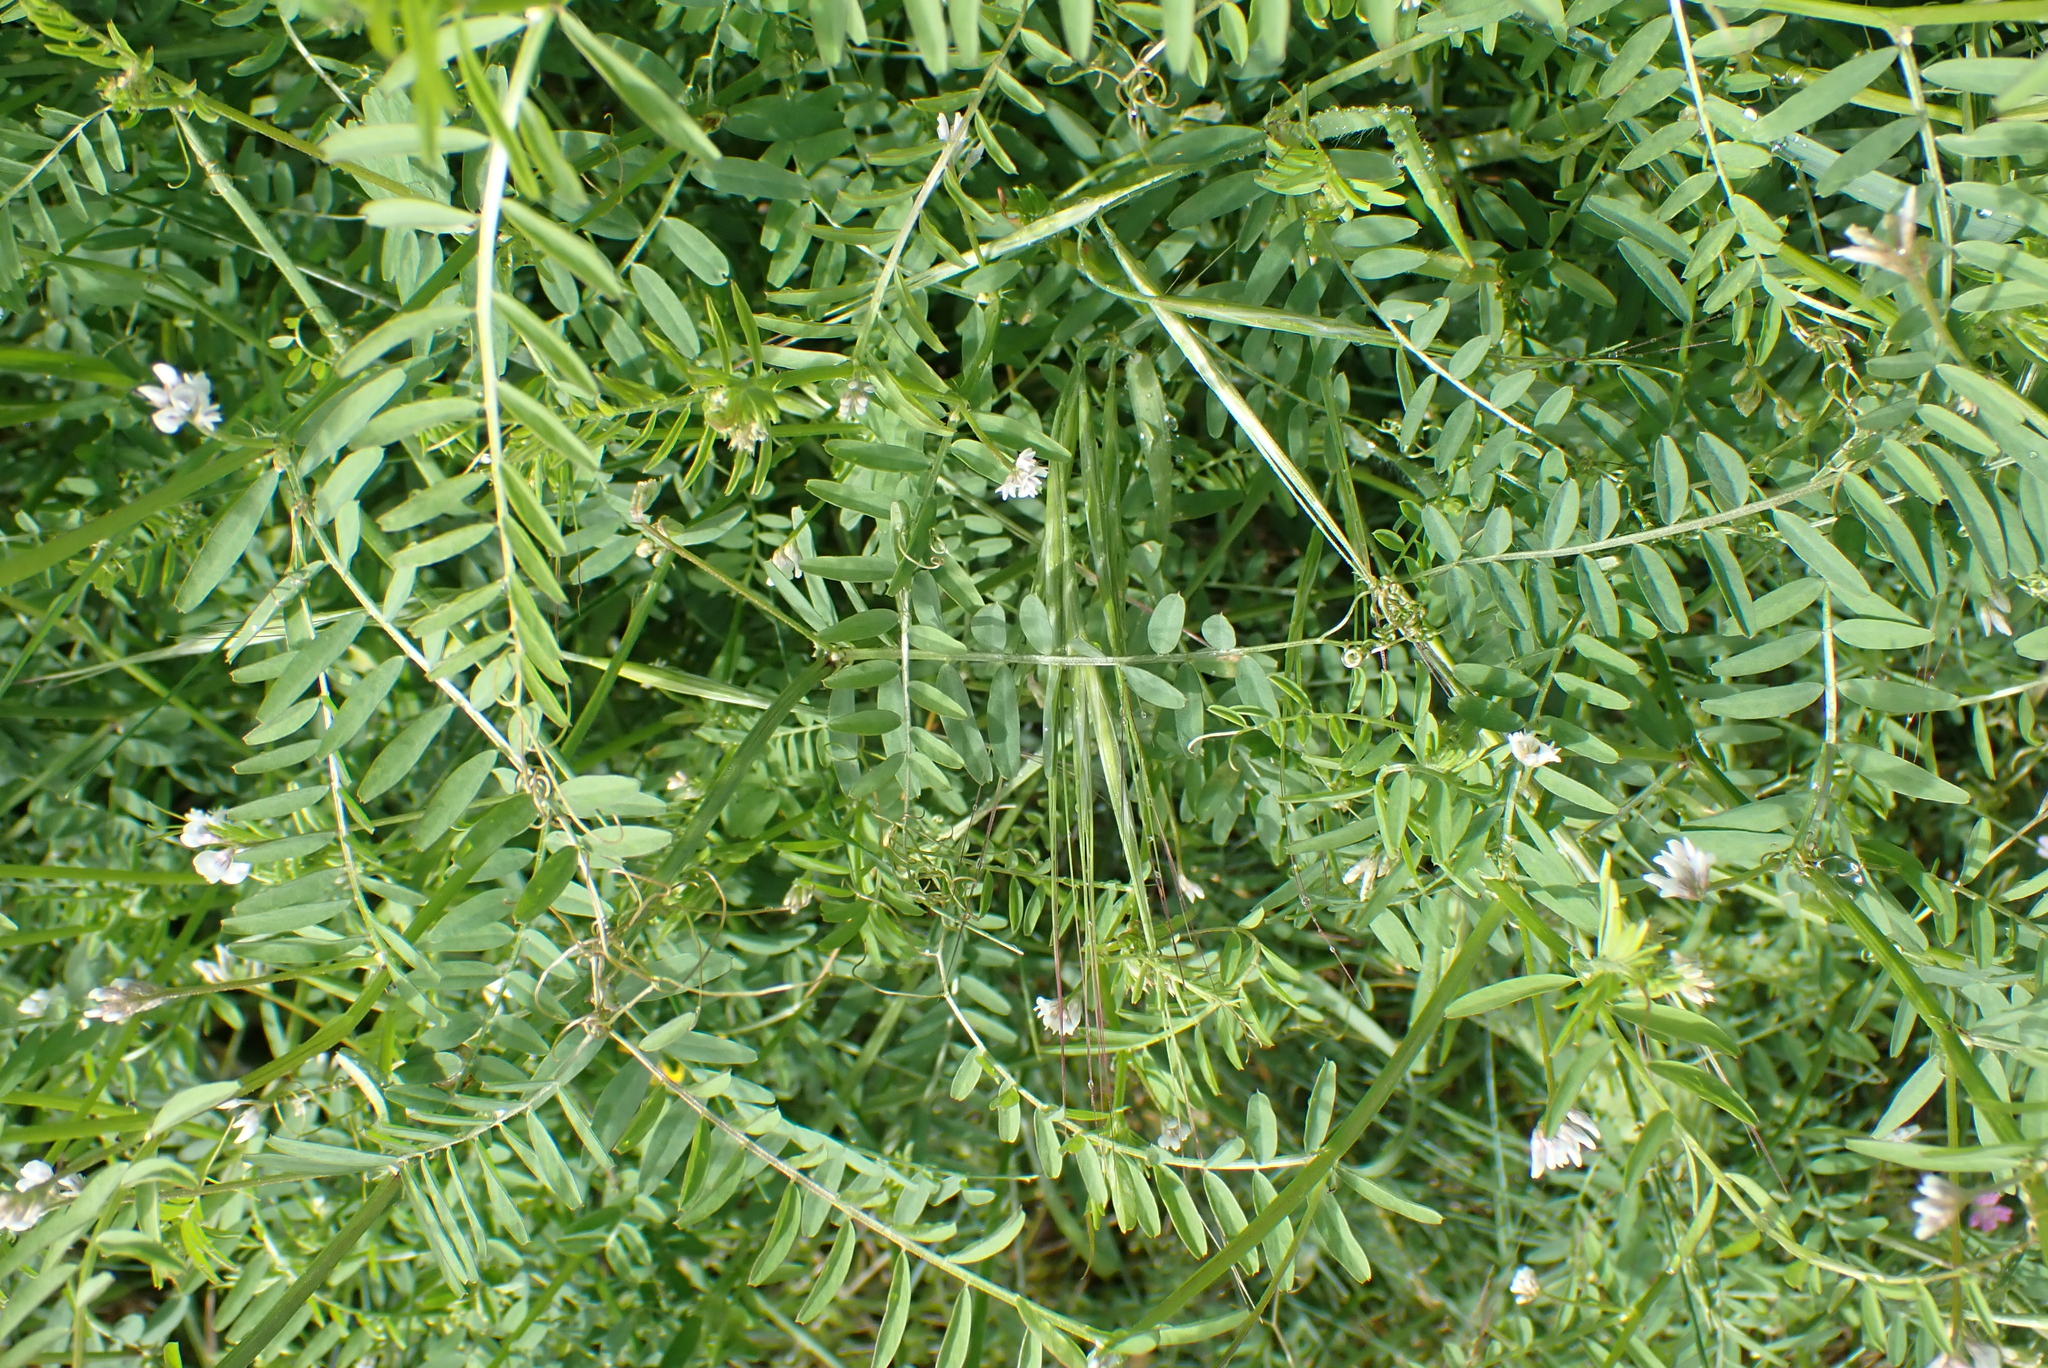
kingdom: Plantae
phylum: Tracheophyta
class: Magnoliopsida
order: Fabales
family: Fabaceae
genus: Vicia
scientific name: Vicia hirsuta
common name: Tiny vetch
